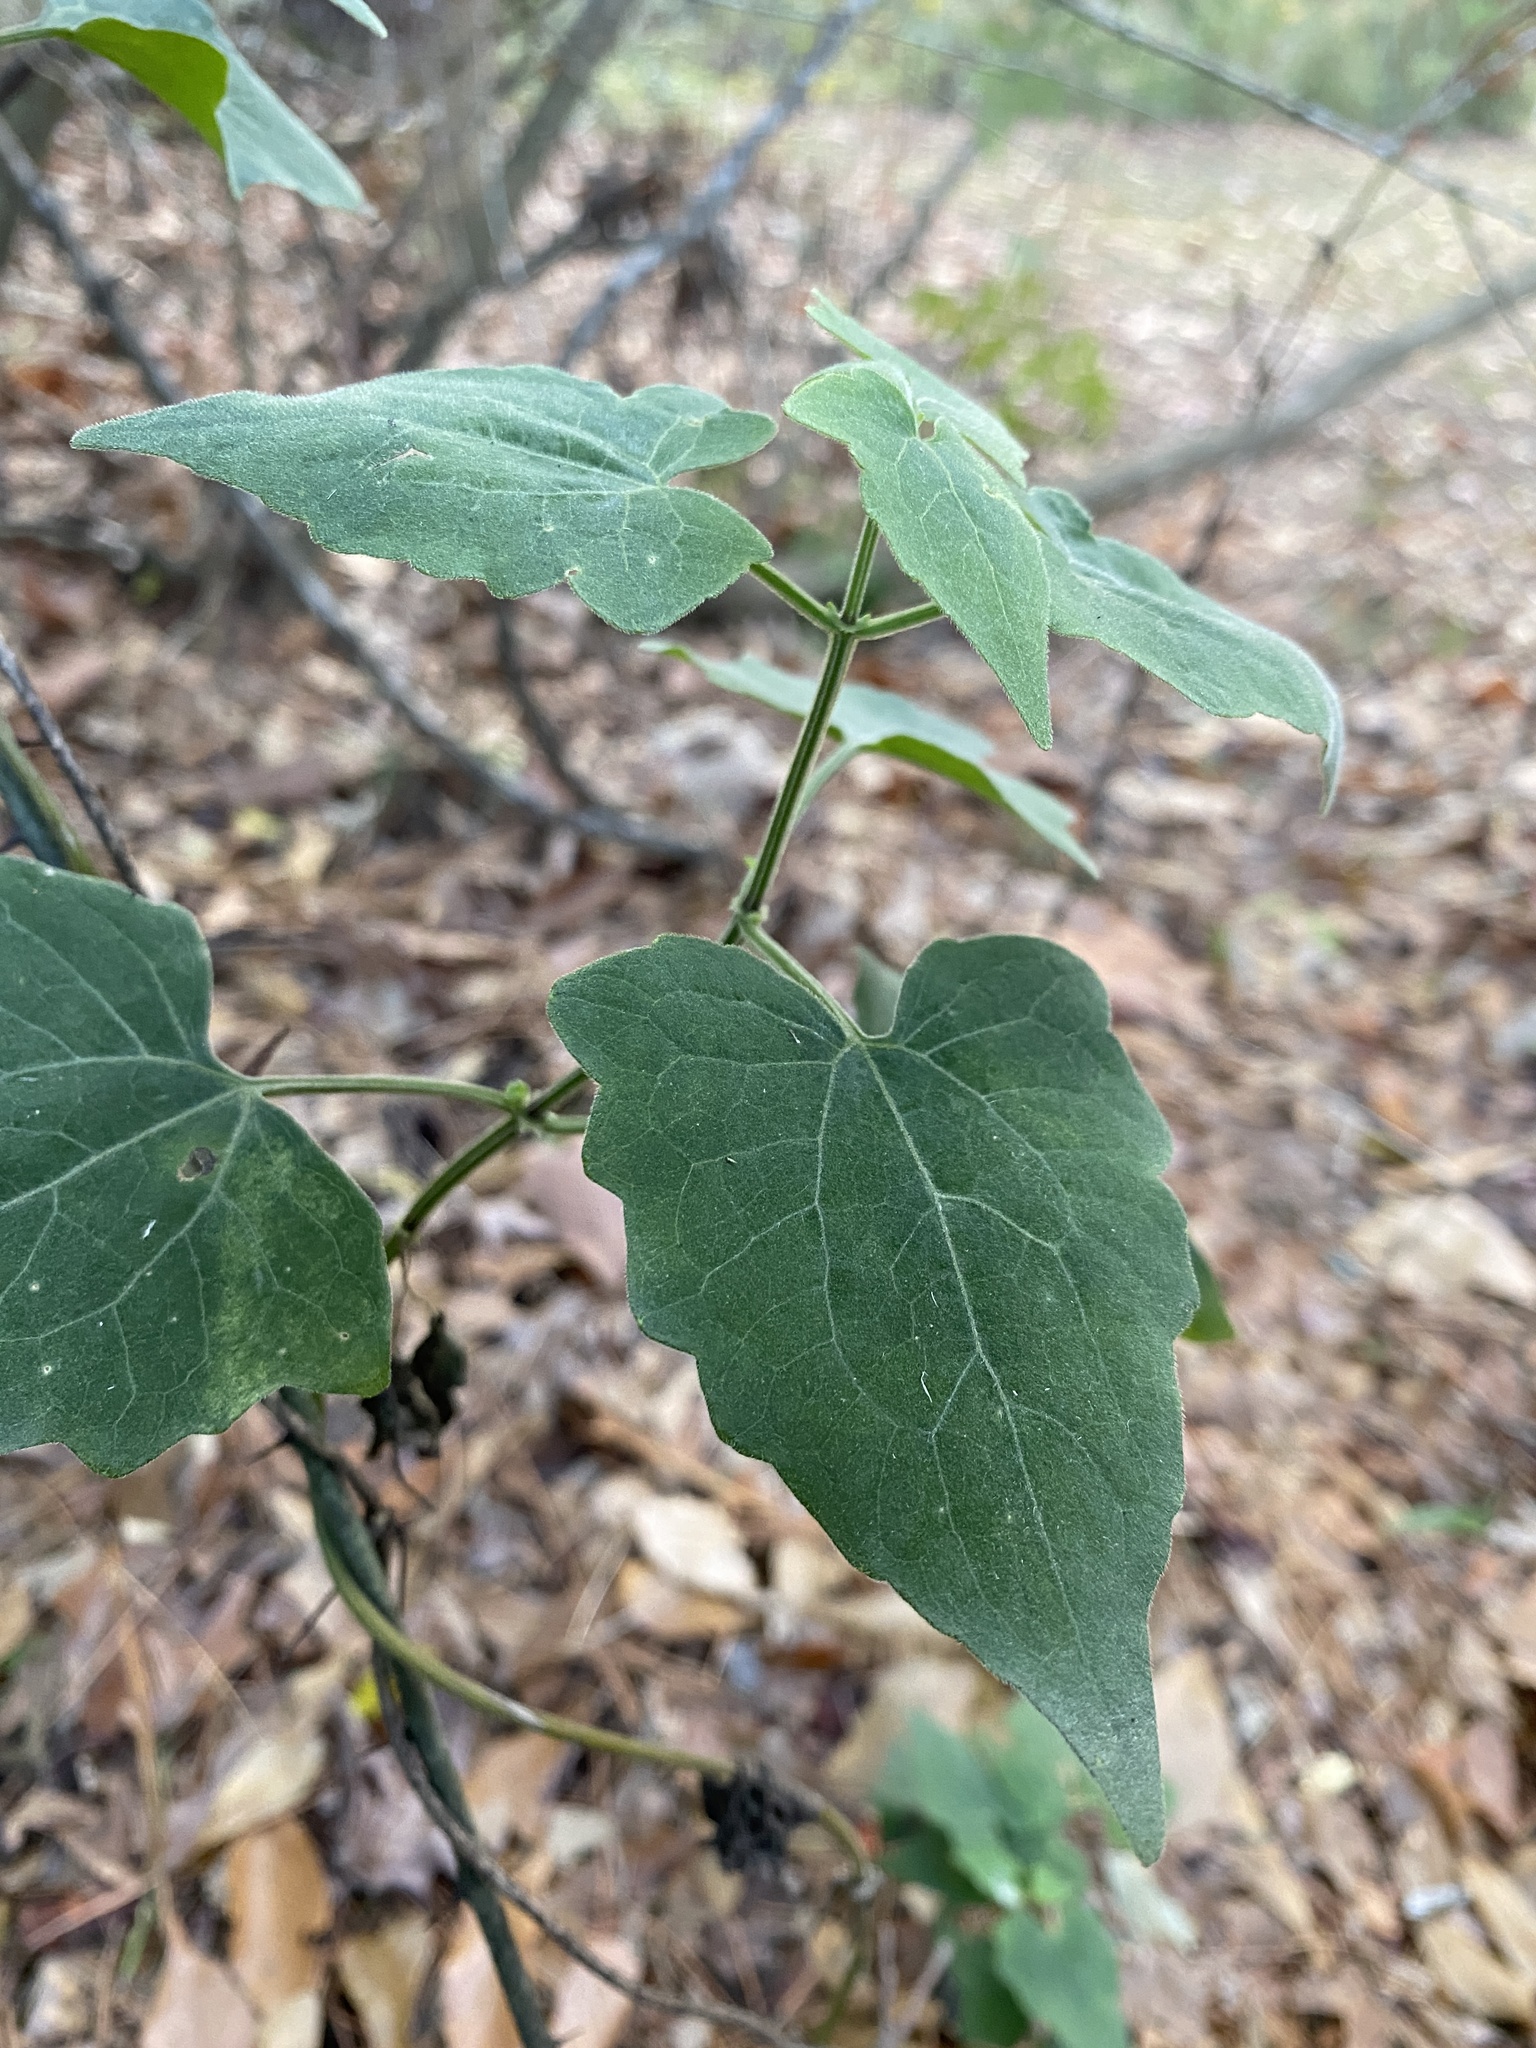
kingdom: Plantae
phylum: Tracheophyta
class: Magnoliopsida
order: Asterales
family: Asteraceae
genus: Mikania
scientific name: Mikania cordifolia
